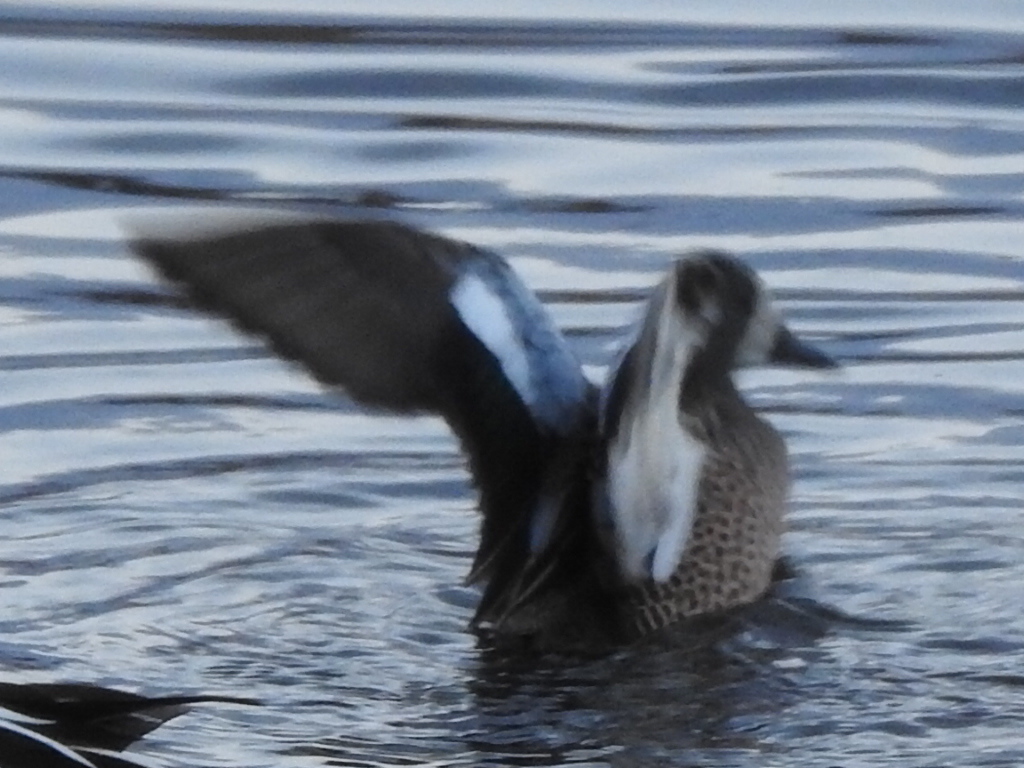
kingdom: Animalia
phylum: Chordata
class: Aves
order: Anseriformes
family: Anatidae
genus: Spatula
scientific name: Spatula discors
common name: Blue-winged teal
